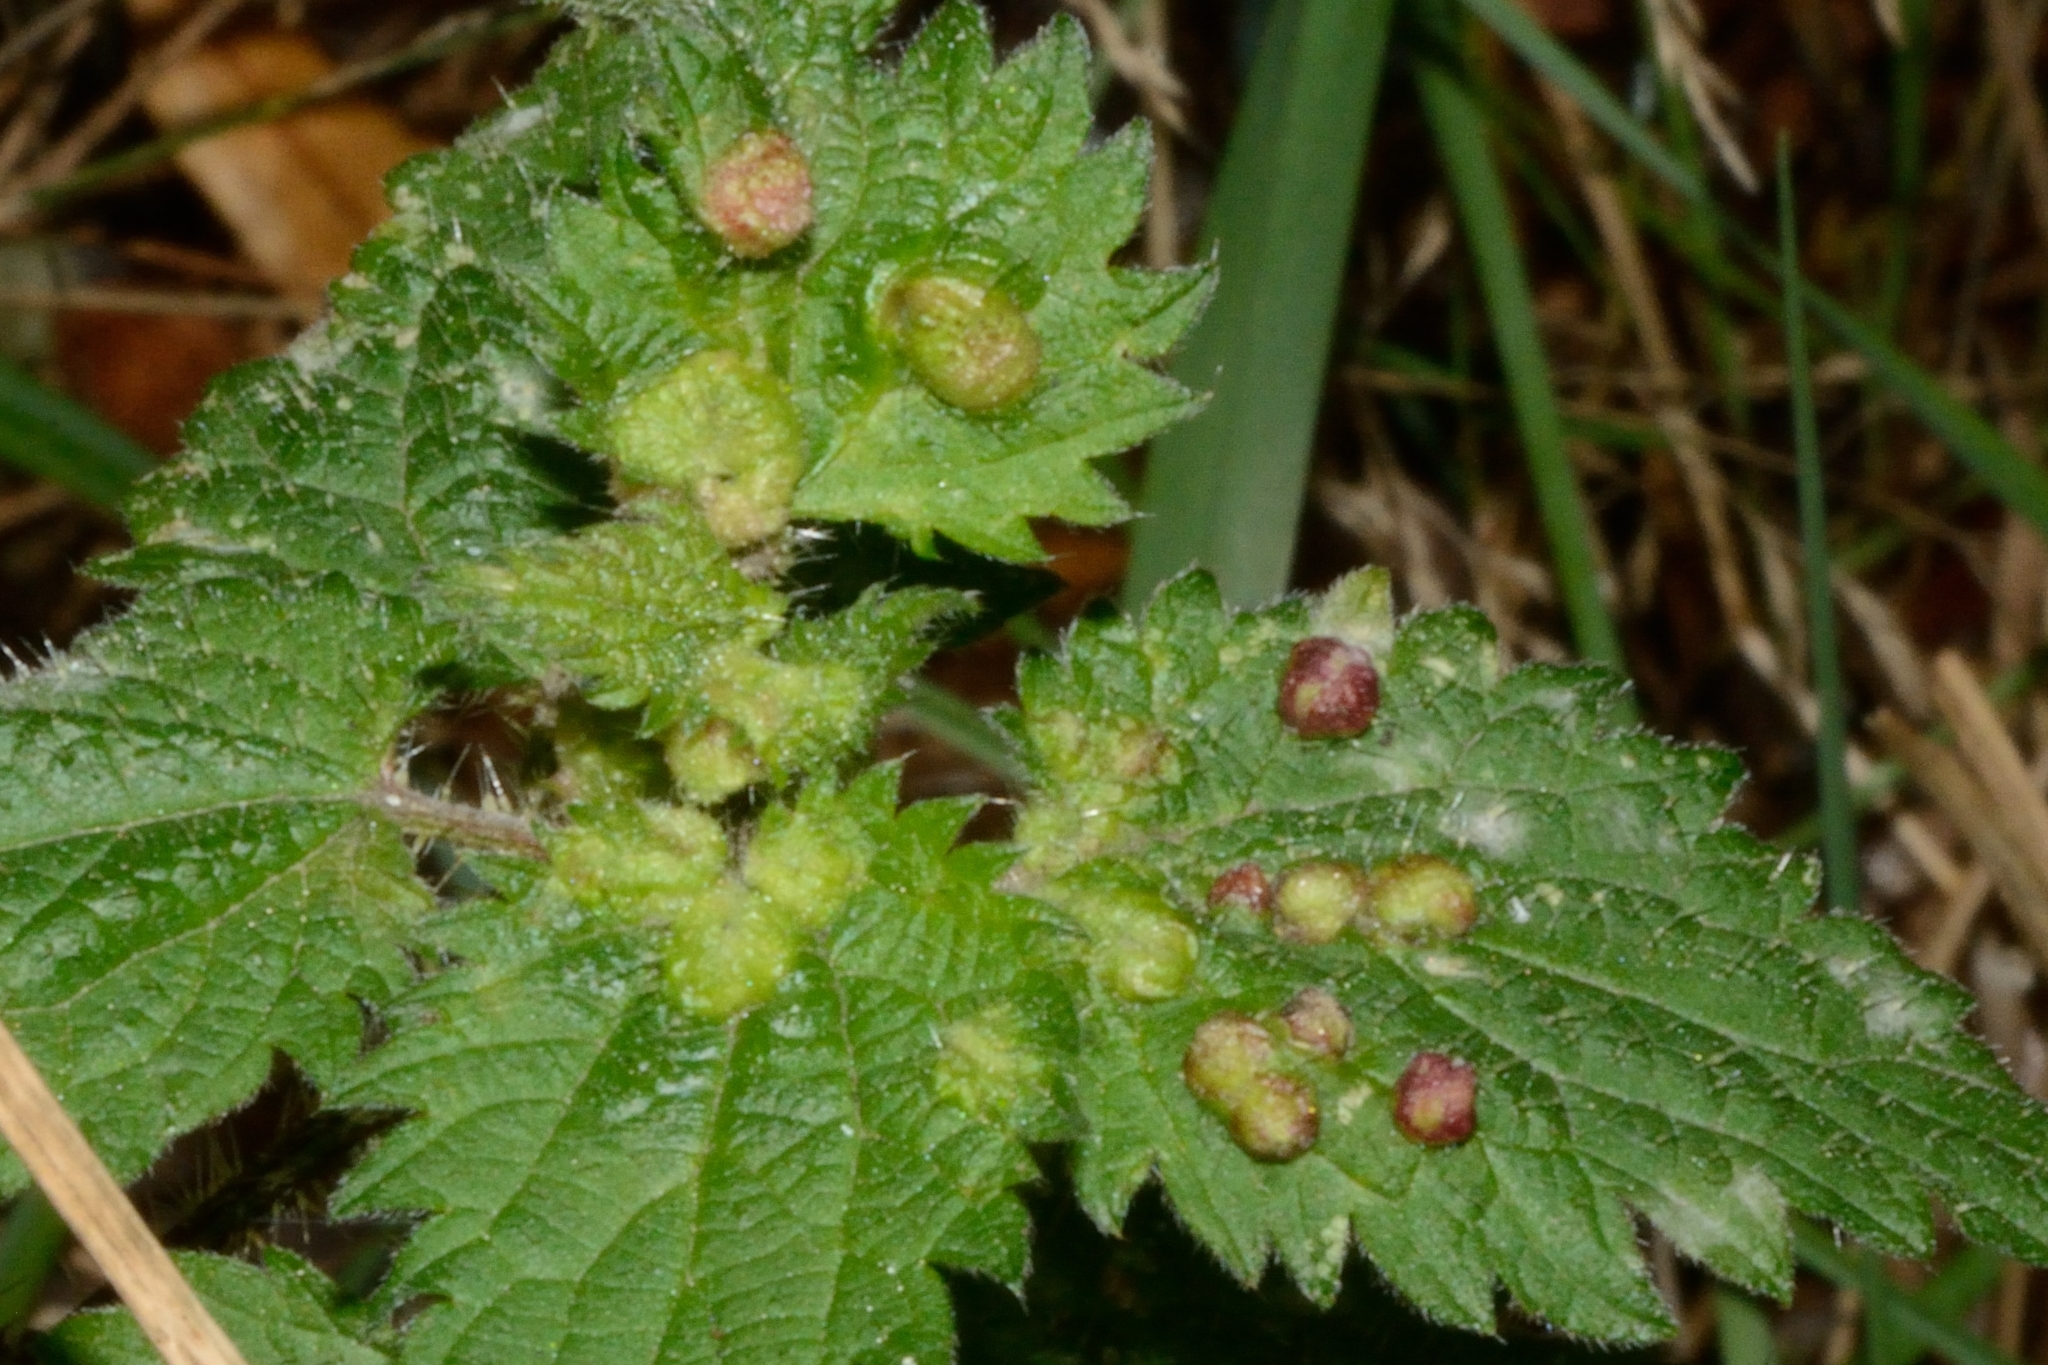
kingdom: Animalia
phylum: Arthropoda
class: Insecta
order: Diptera
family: Cecidomyiidae
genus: Dasineura
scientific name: Dasineura urticae
